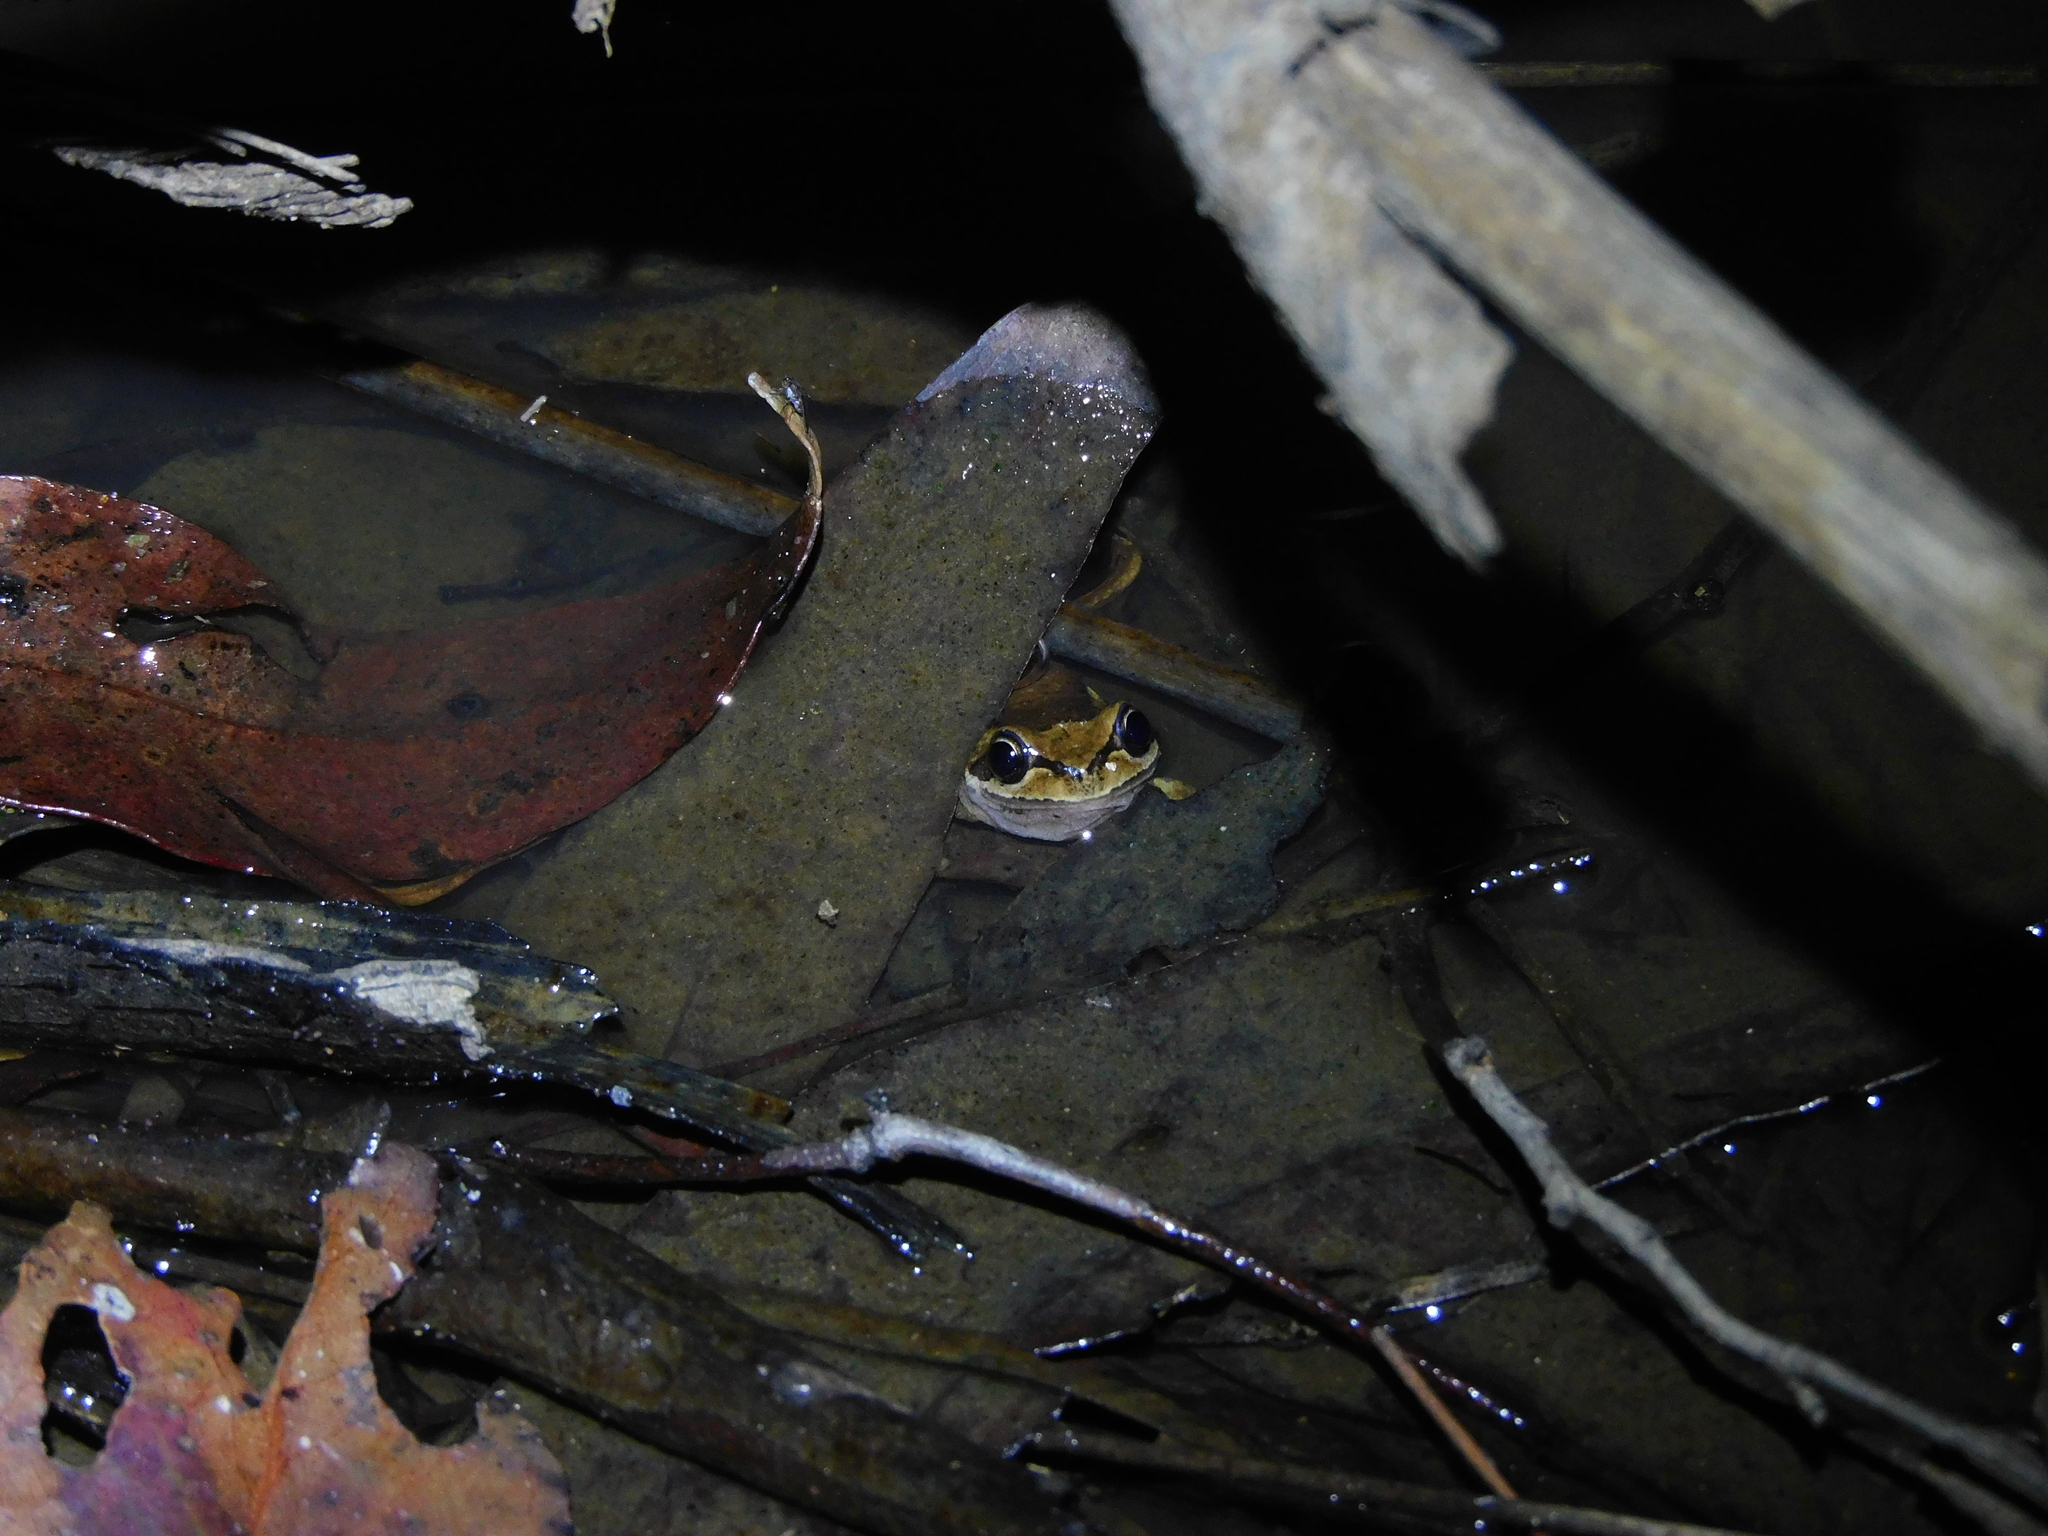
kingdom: Animalia
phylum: Chordata
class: Amphibia
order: Anura
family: Pelodryadidae
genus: Litoria
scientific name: Litoria ewingii
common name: Southern brown tree frog
